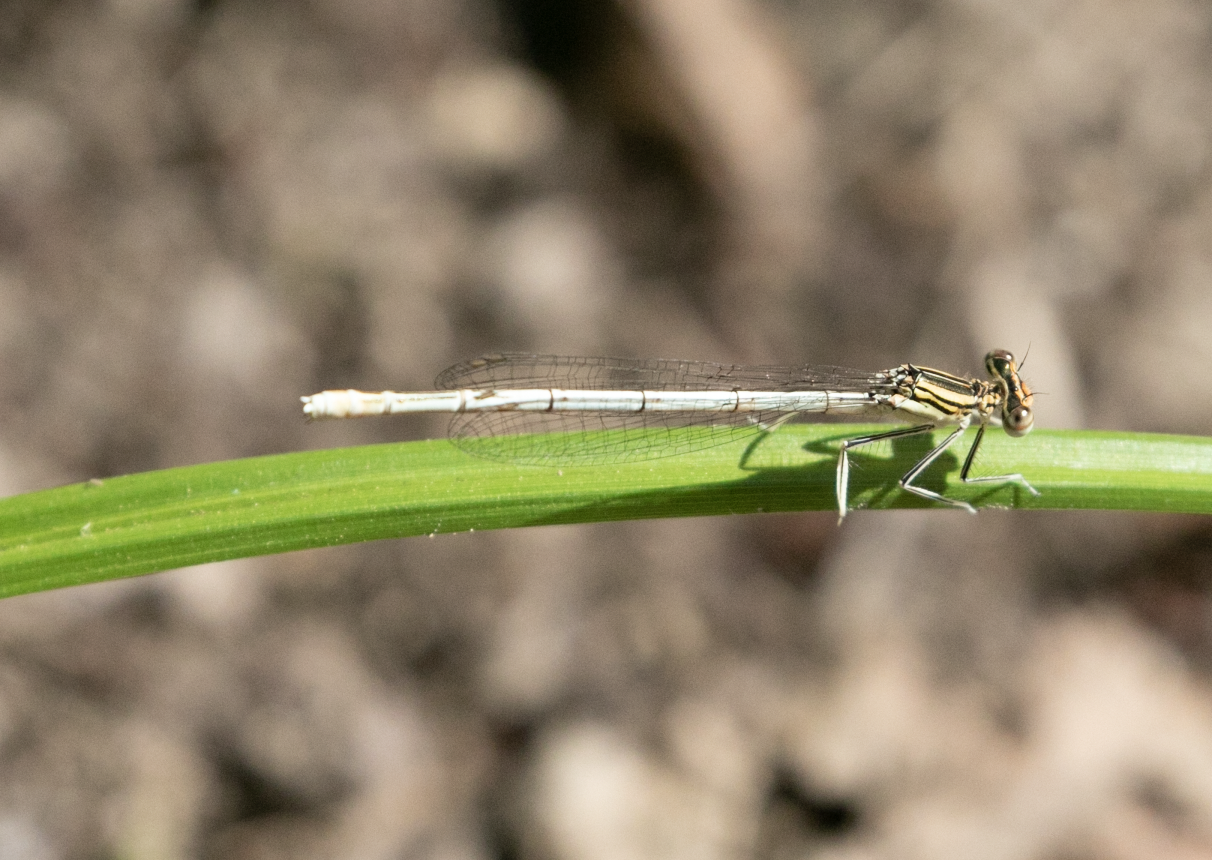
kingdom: Animalia
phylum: Arthropoda
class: Insecta
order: Odonata
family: Platycnemididae
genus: Platycnemis
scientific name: Platycnemis pennipes
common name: White-legged damselfly
